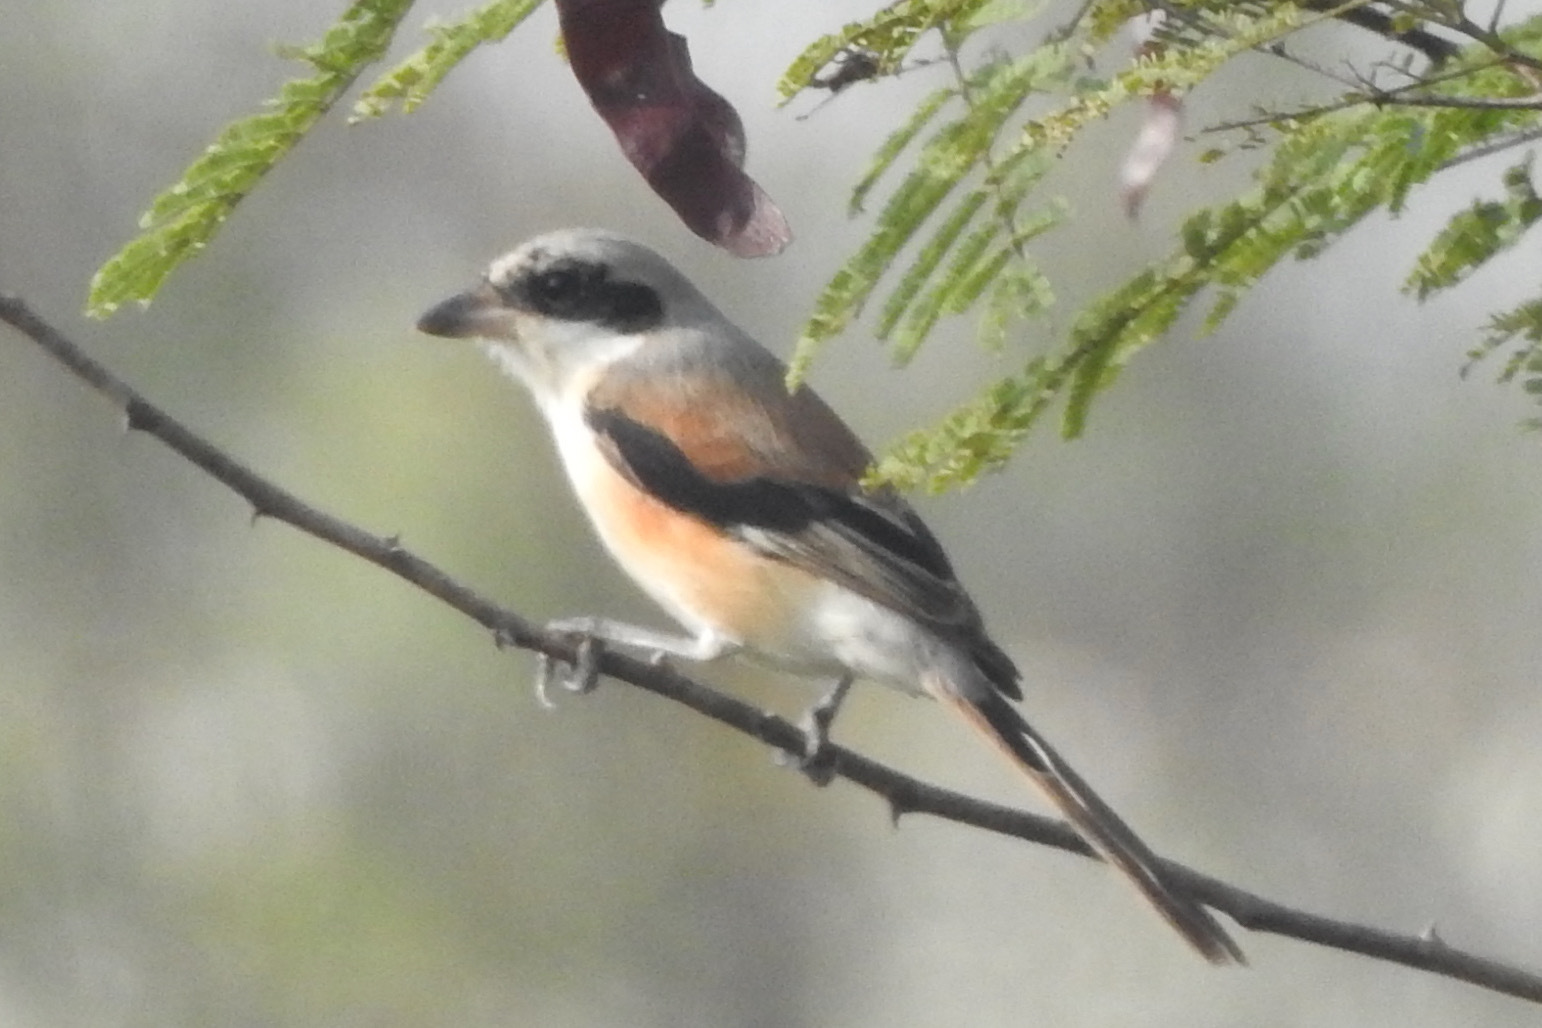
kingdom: Animalia
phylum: Chordata
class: Aves
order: Passeriformes
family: Laniidae
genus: Lanius
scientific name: Lanius schach
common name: Long-tailed shrike
